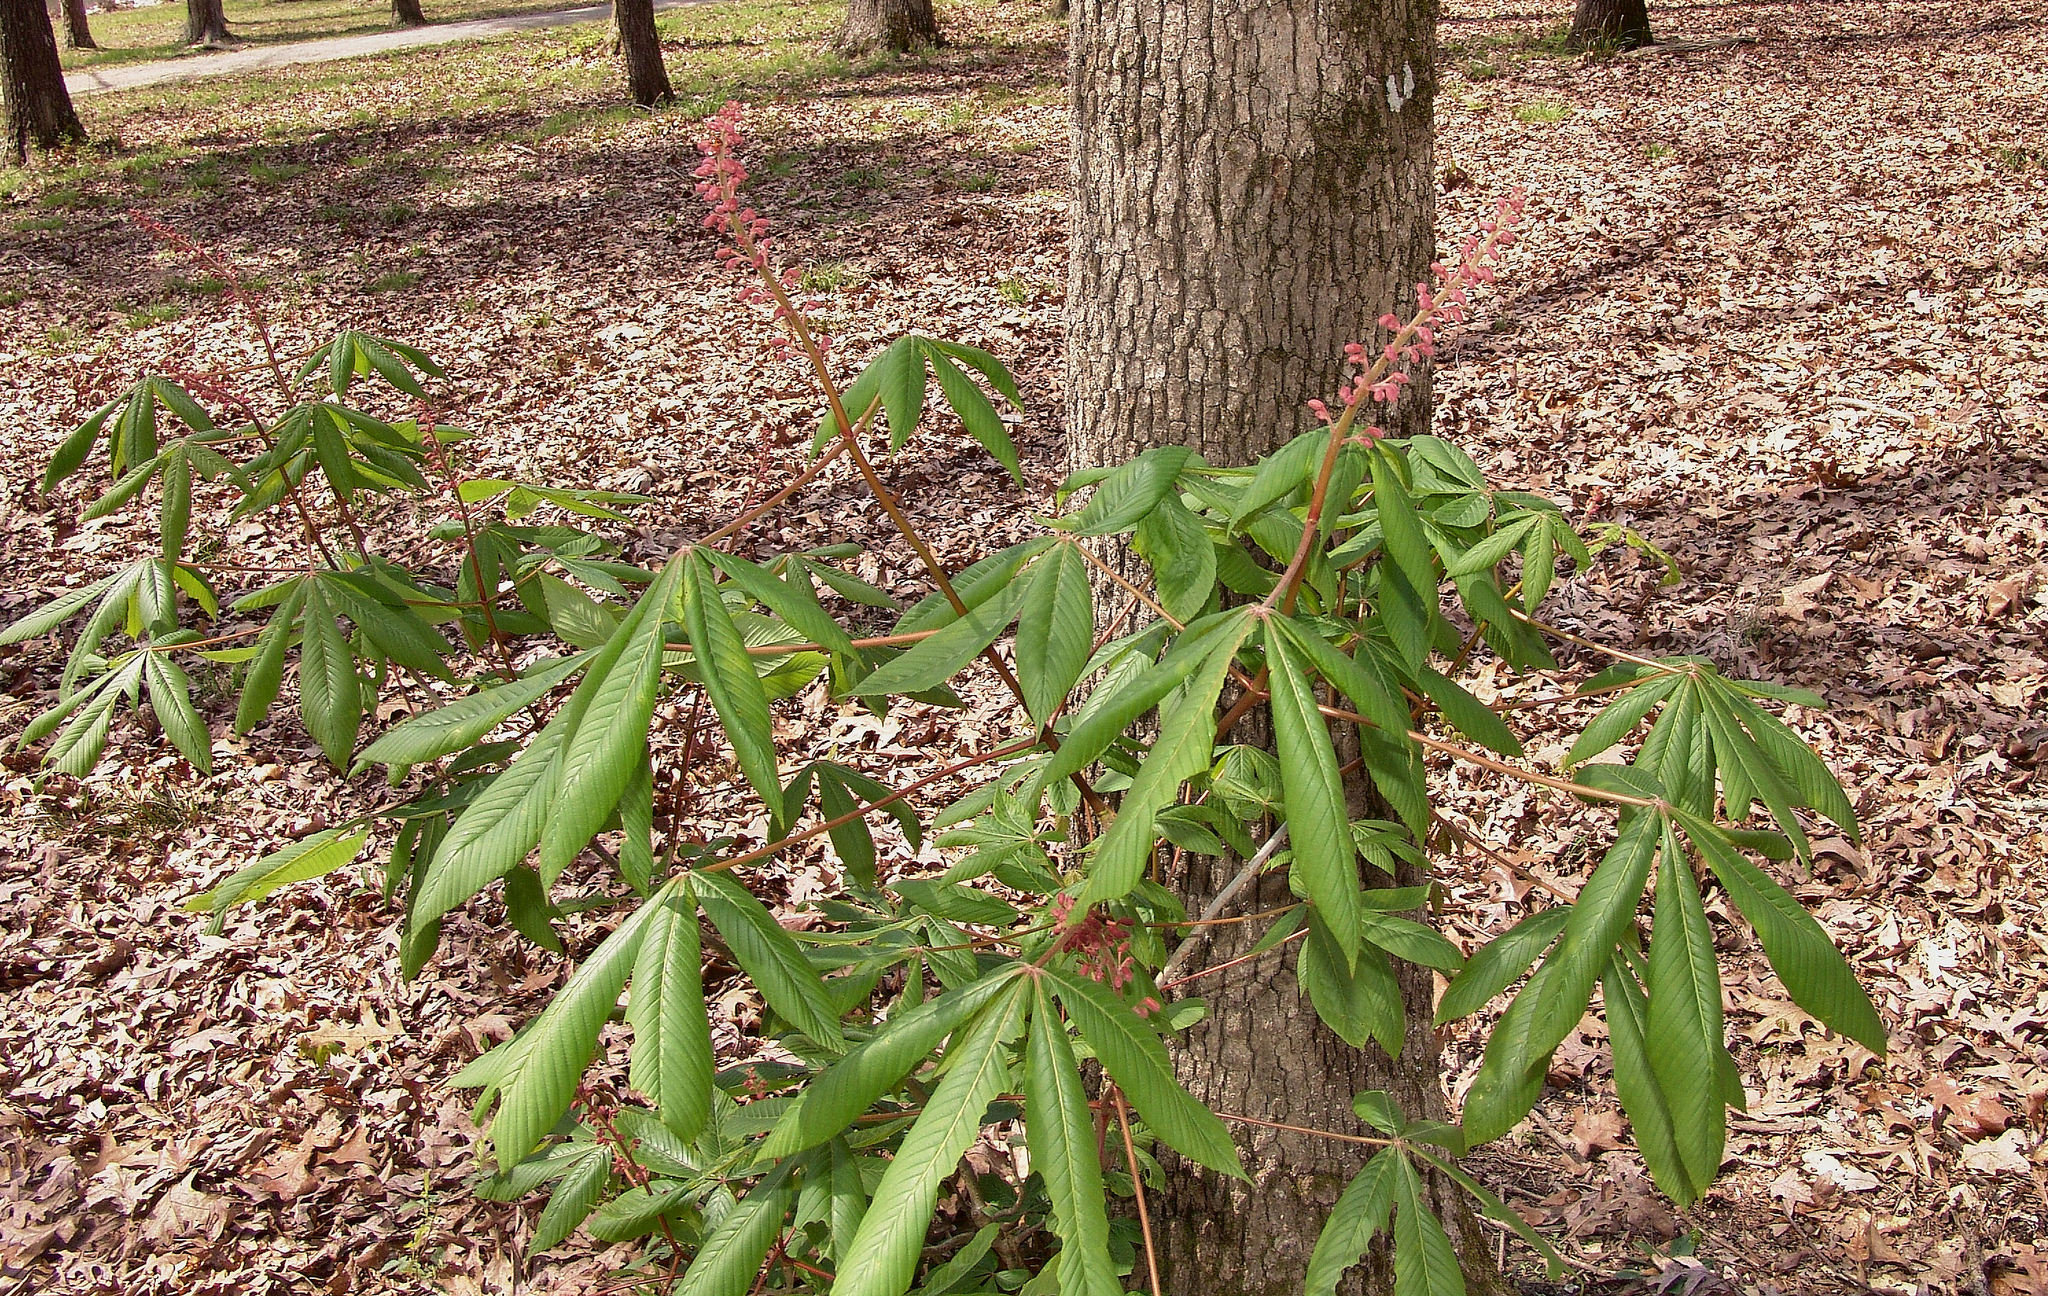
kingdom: Plantae
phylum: Tracheophyta
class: Magnoliopsida
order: Sapindales
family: Sapindaceae
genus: Aesculus
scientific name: Aesculus pavia
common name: Red buckeye
